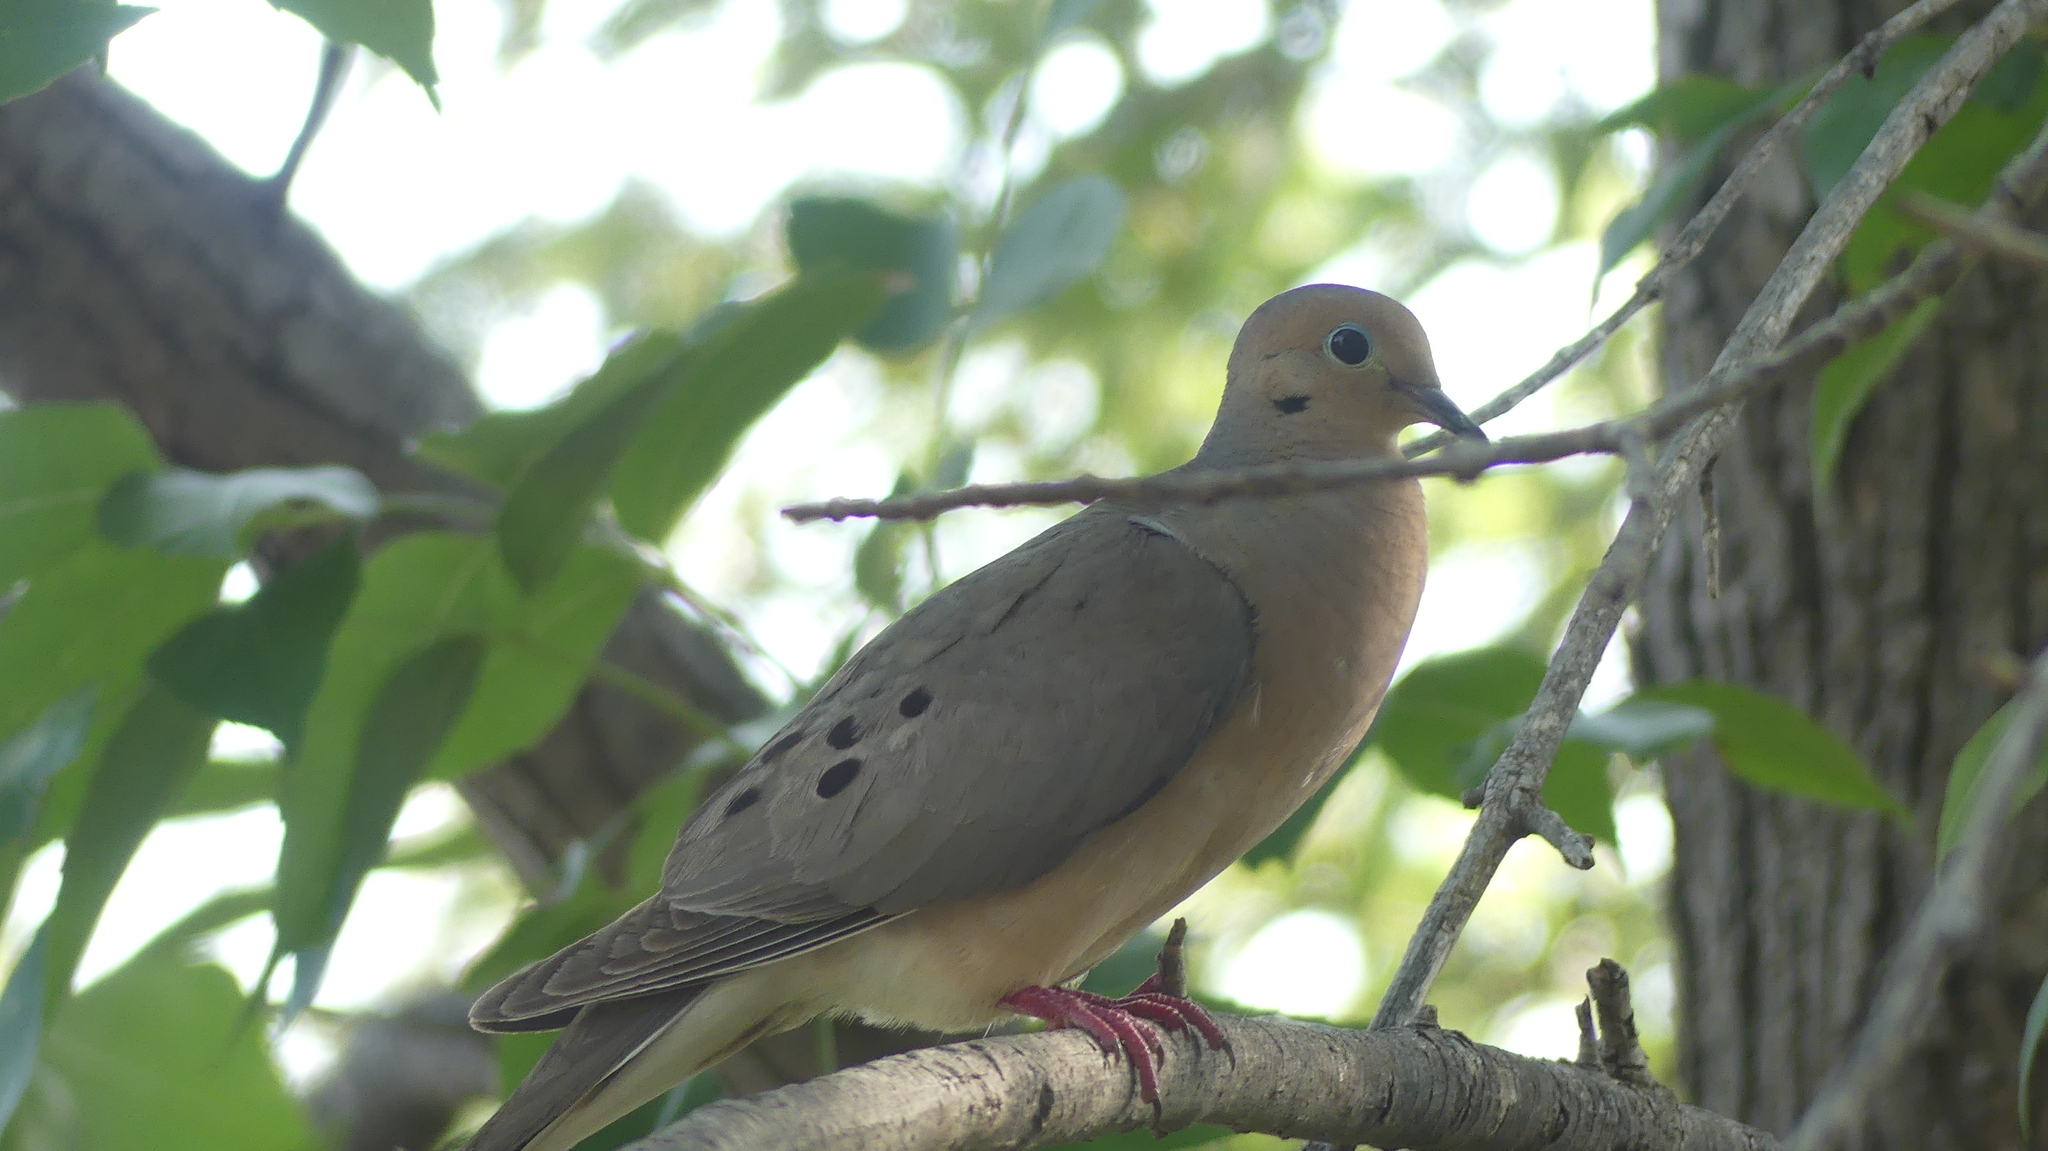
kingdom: Animalia
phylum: Chordata
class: Aves
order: Columbiformes
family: Columbidae
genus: Zenaida
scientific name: Zenaida macroura
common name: Mourning dove
